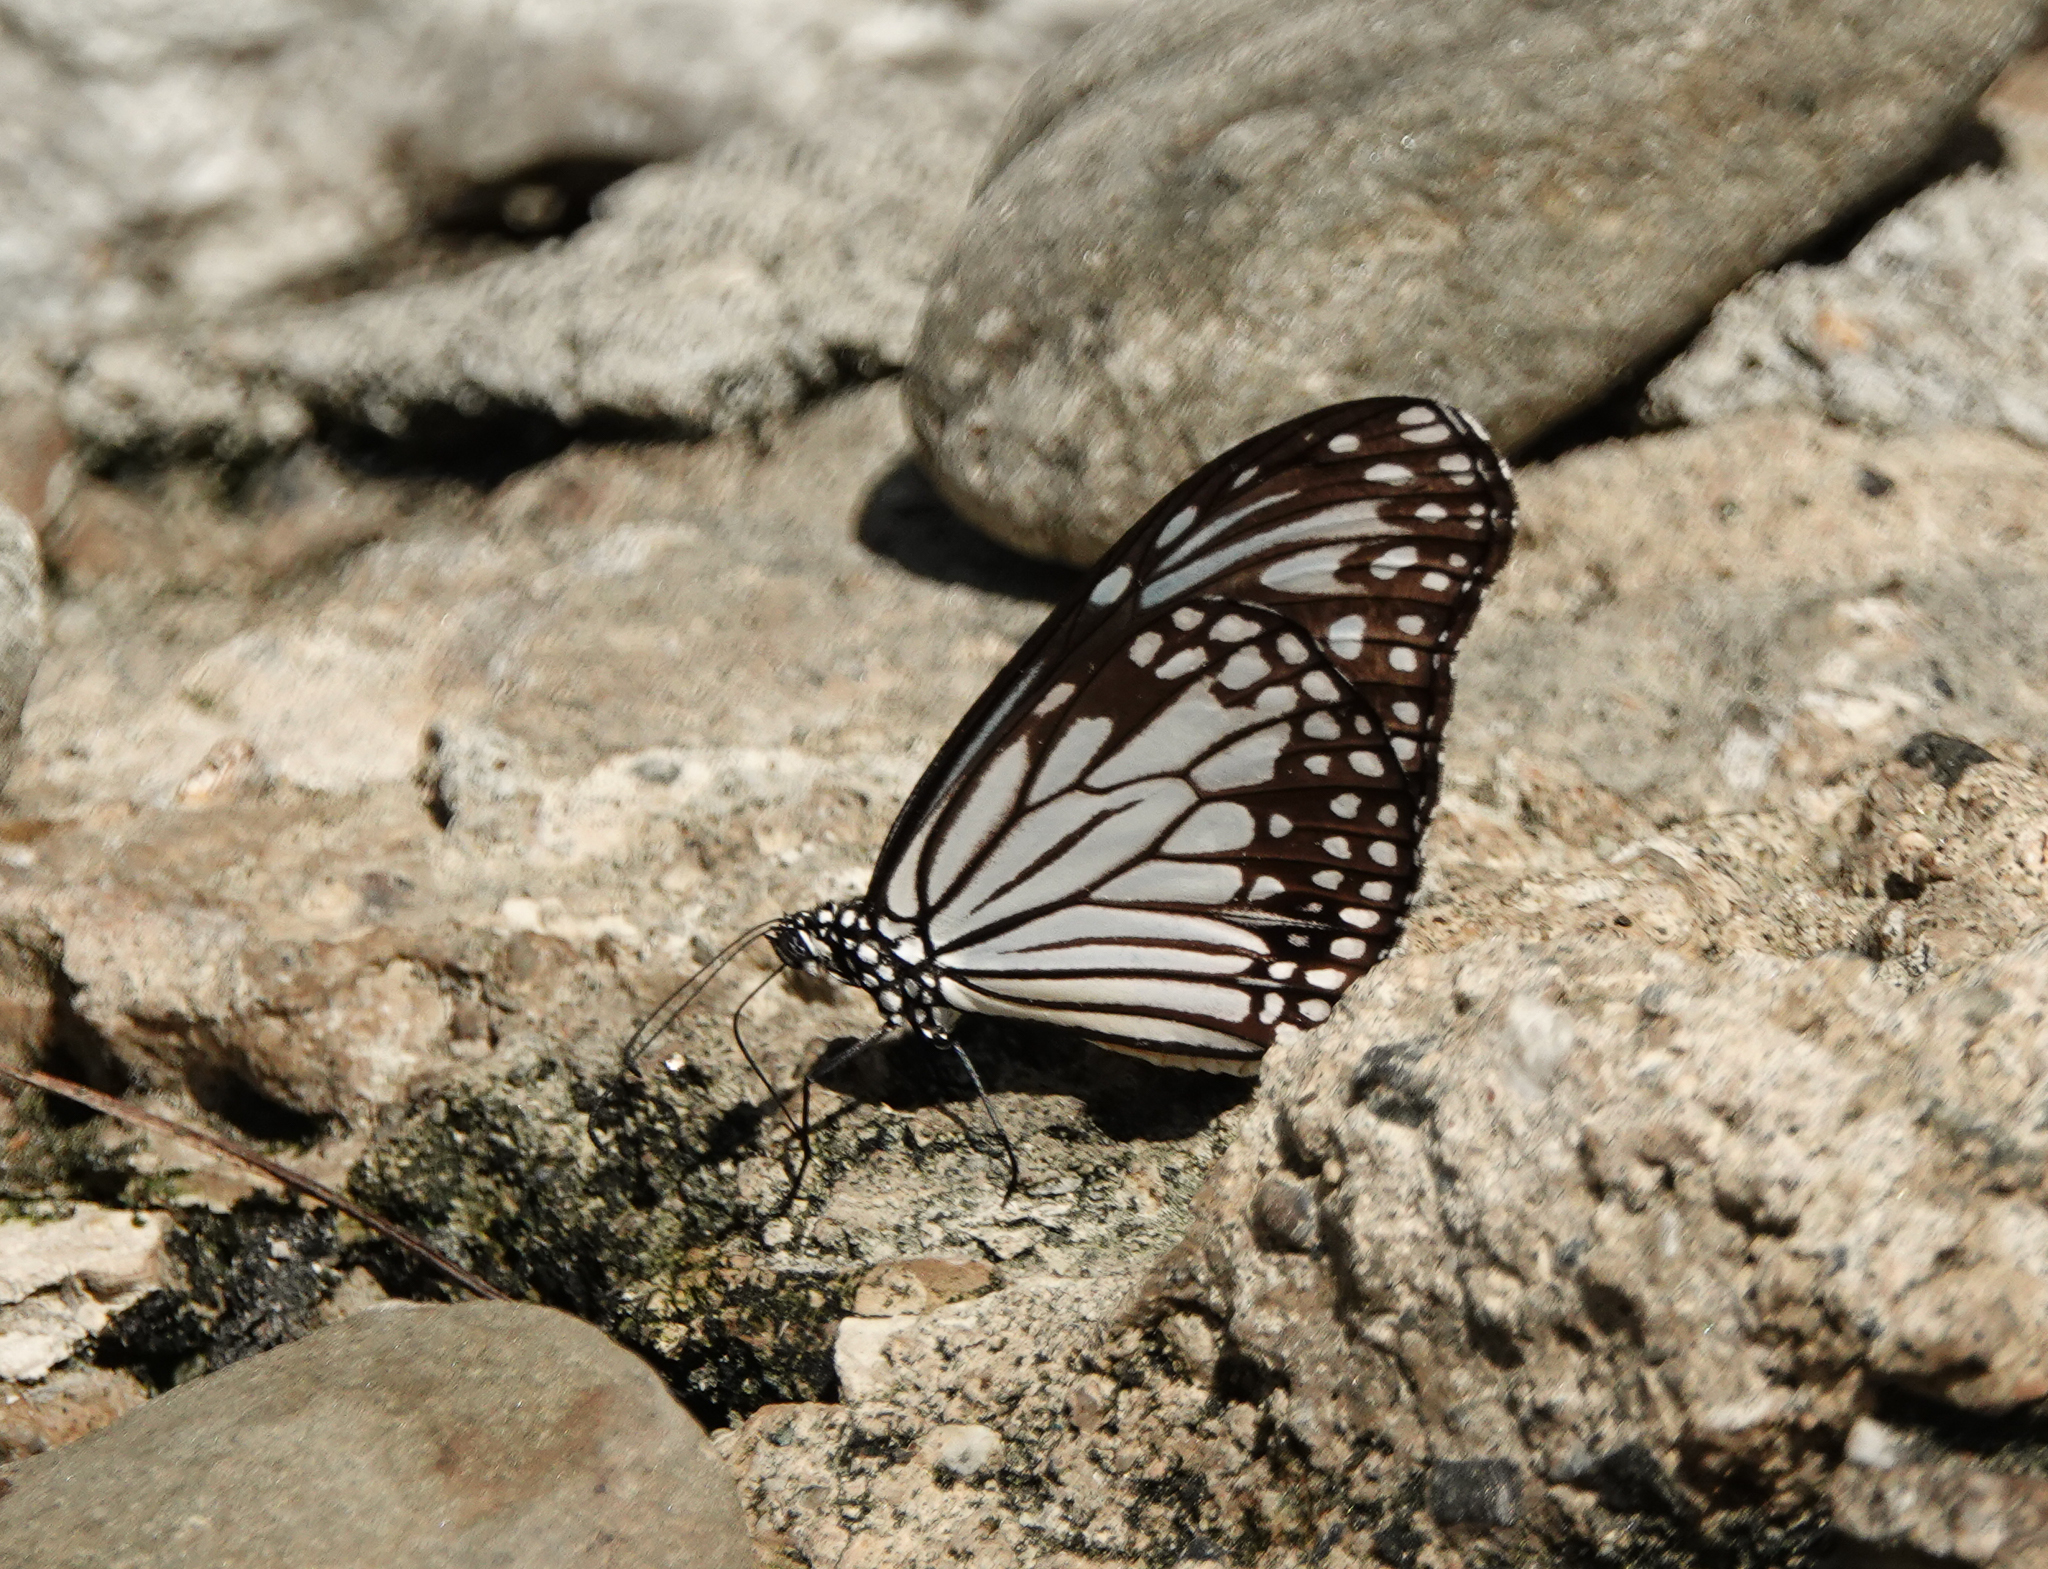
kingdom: Animalia
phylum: Arthropoda
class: Insecta
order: Lepidoptera
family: Nymphalidae
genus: Parantica
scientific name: Parantica aglea
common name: Glassy tiger
